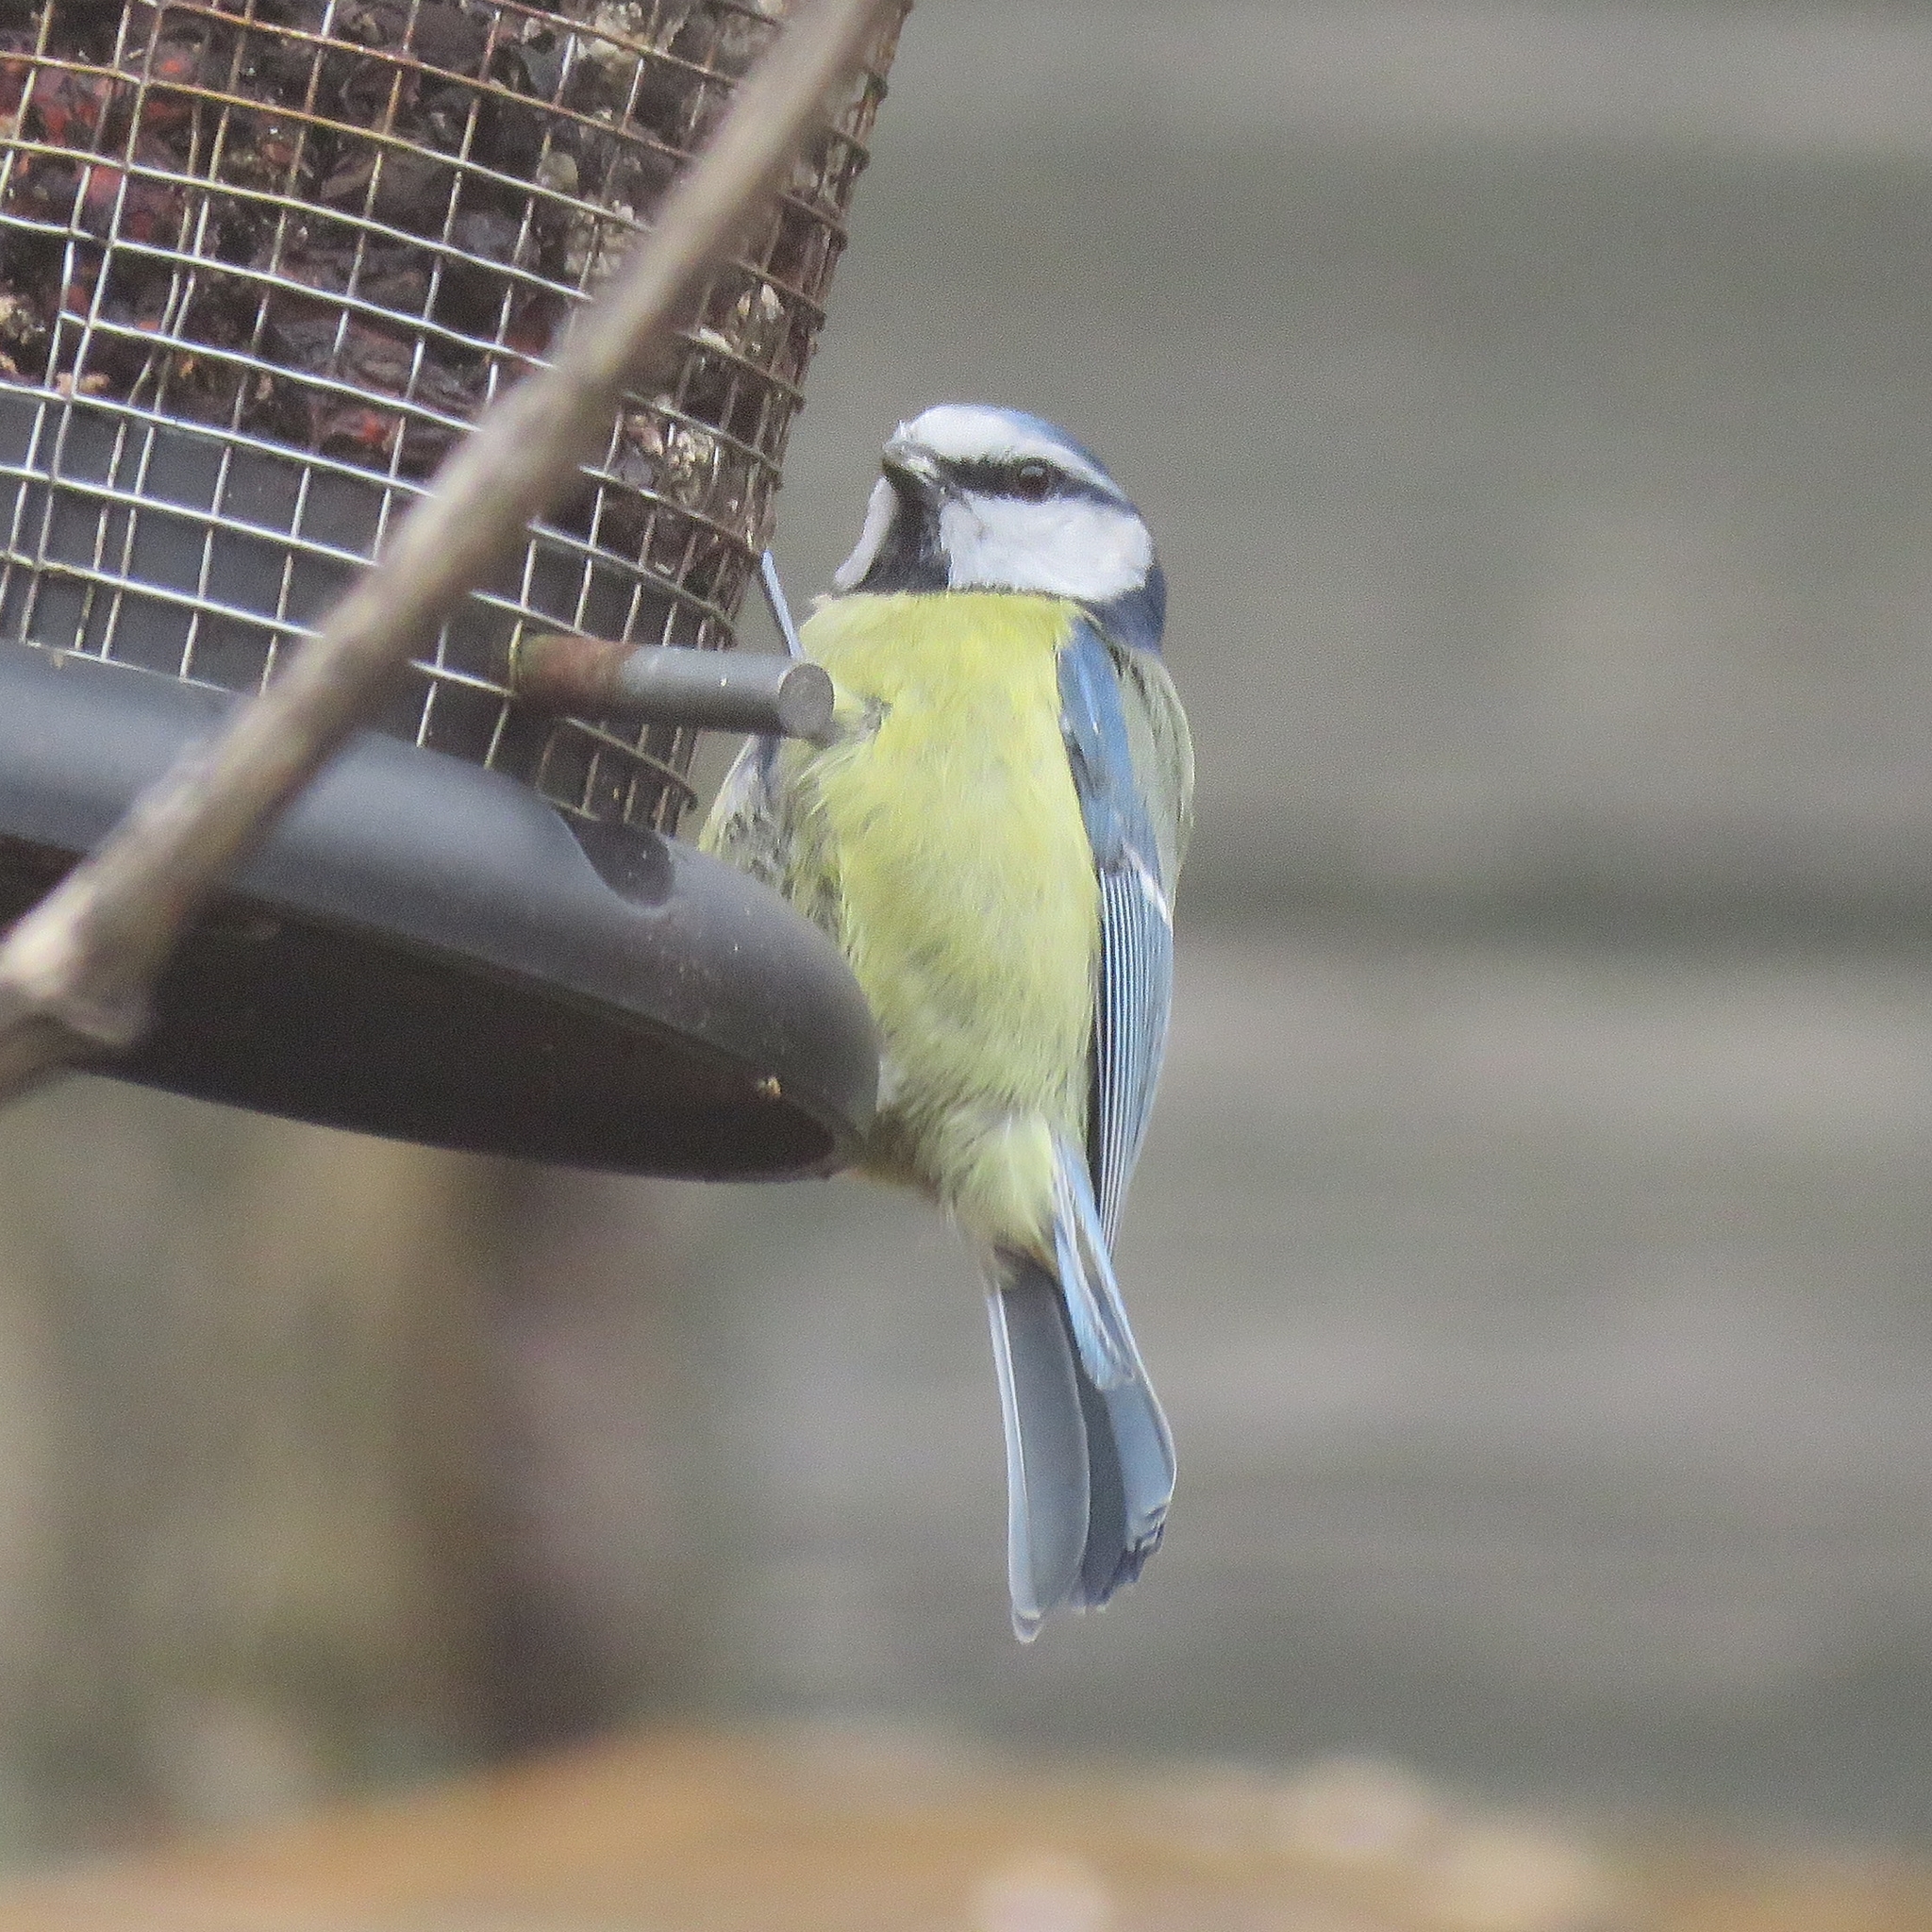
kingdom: Animalia
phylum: Chordata
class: Aves
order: Passeriformes
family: Paridae
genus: Cyanistes
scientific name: Cyanistes caeruleus
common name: Eurasian blue tit
